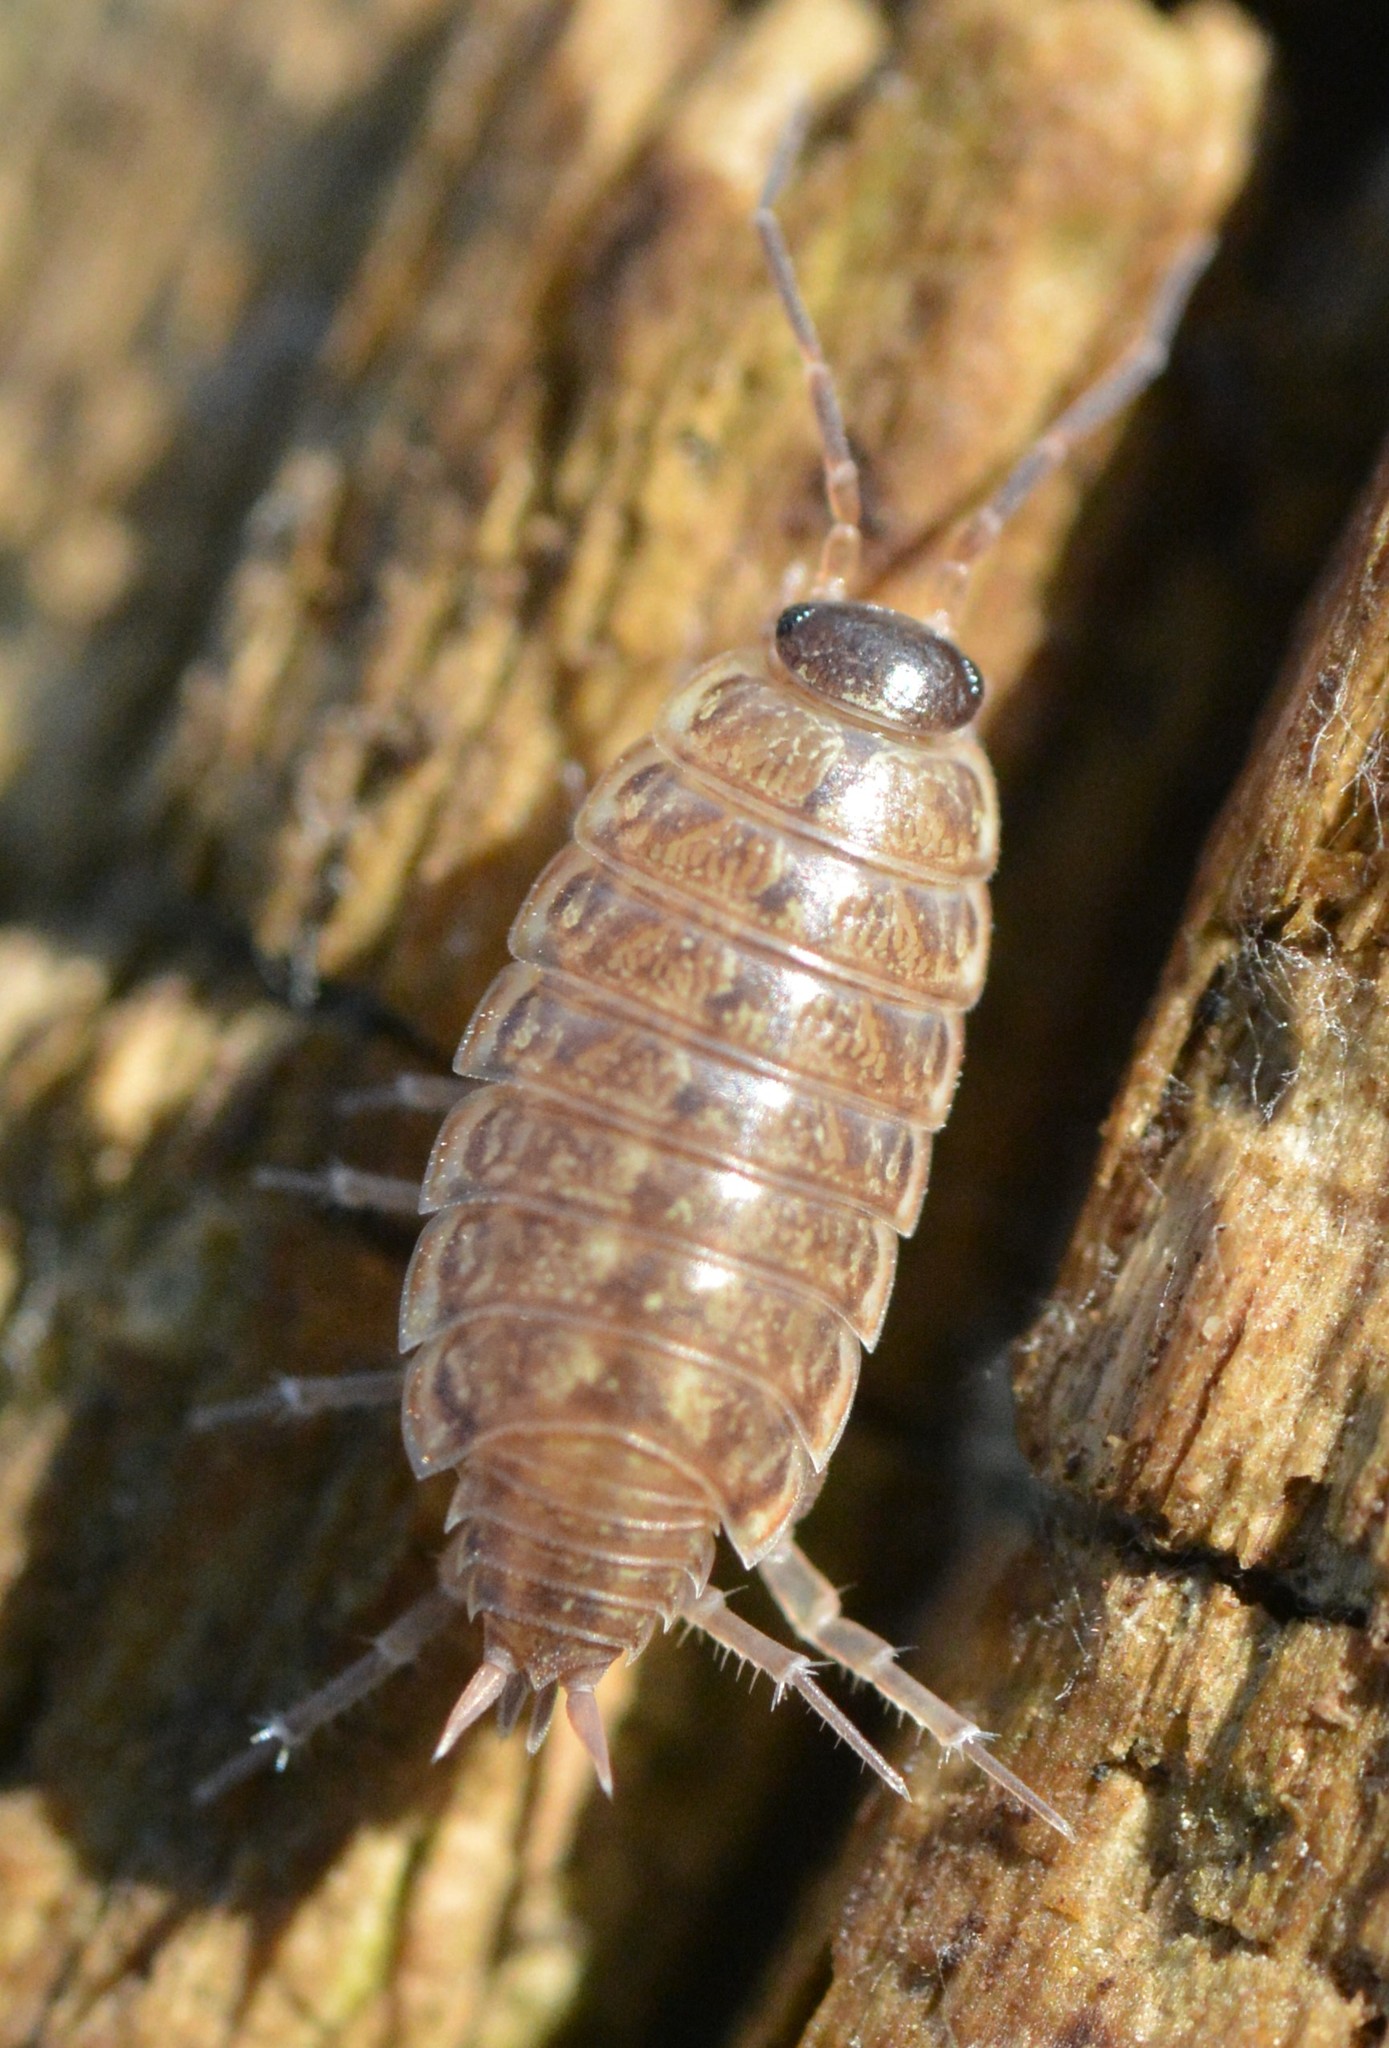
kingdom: Animalia
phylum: Arthropoda
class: Malacostraca
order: Isopoda
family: Philosciidae
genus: Philoscia
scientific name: Philoscia muscorum
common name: Common striped woodlouse
